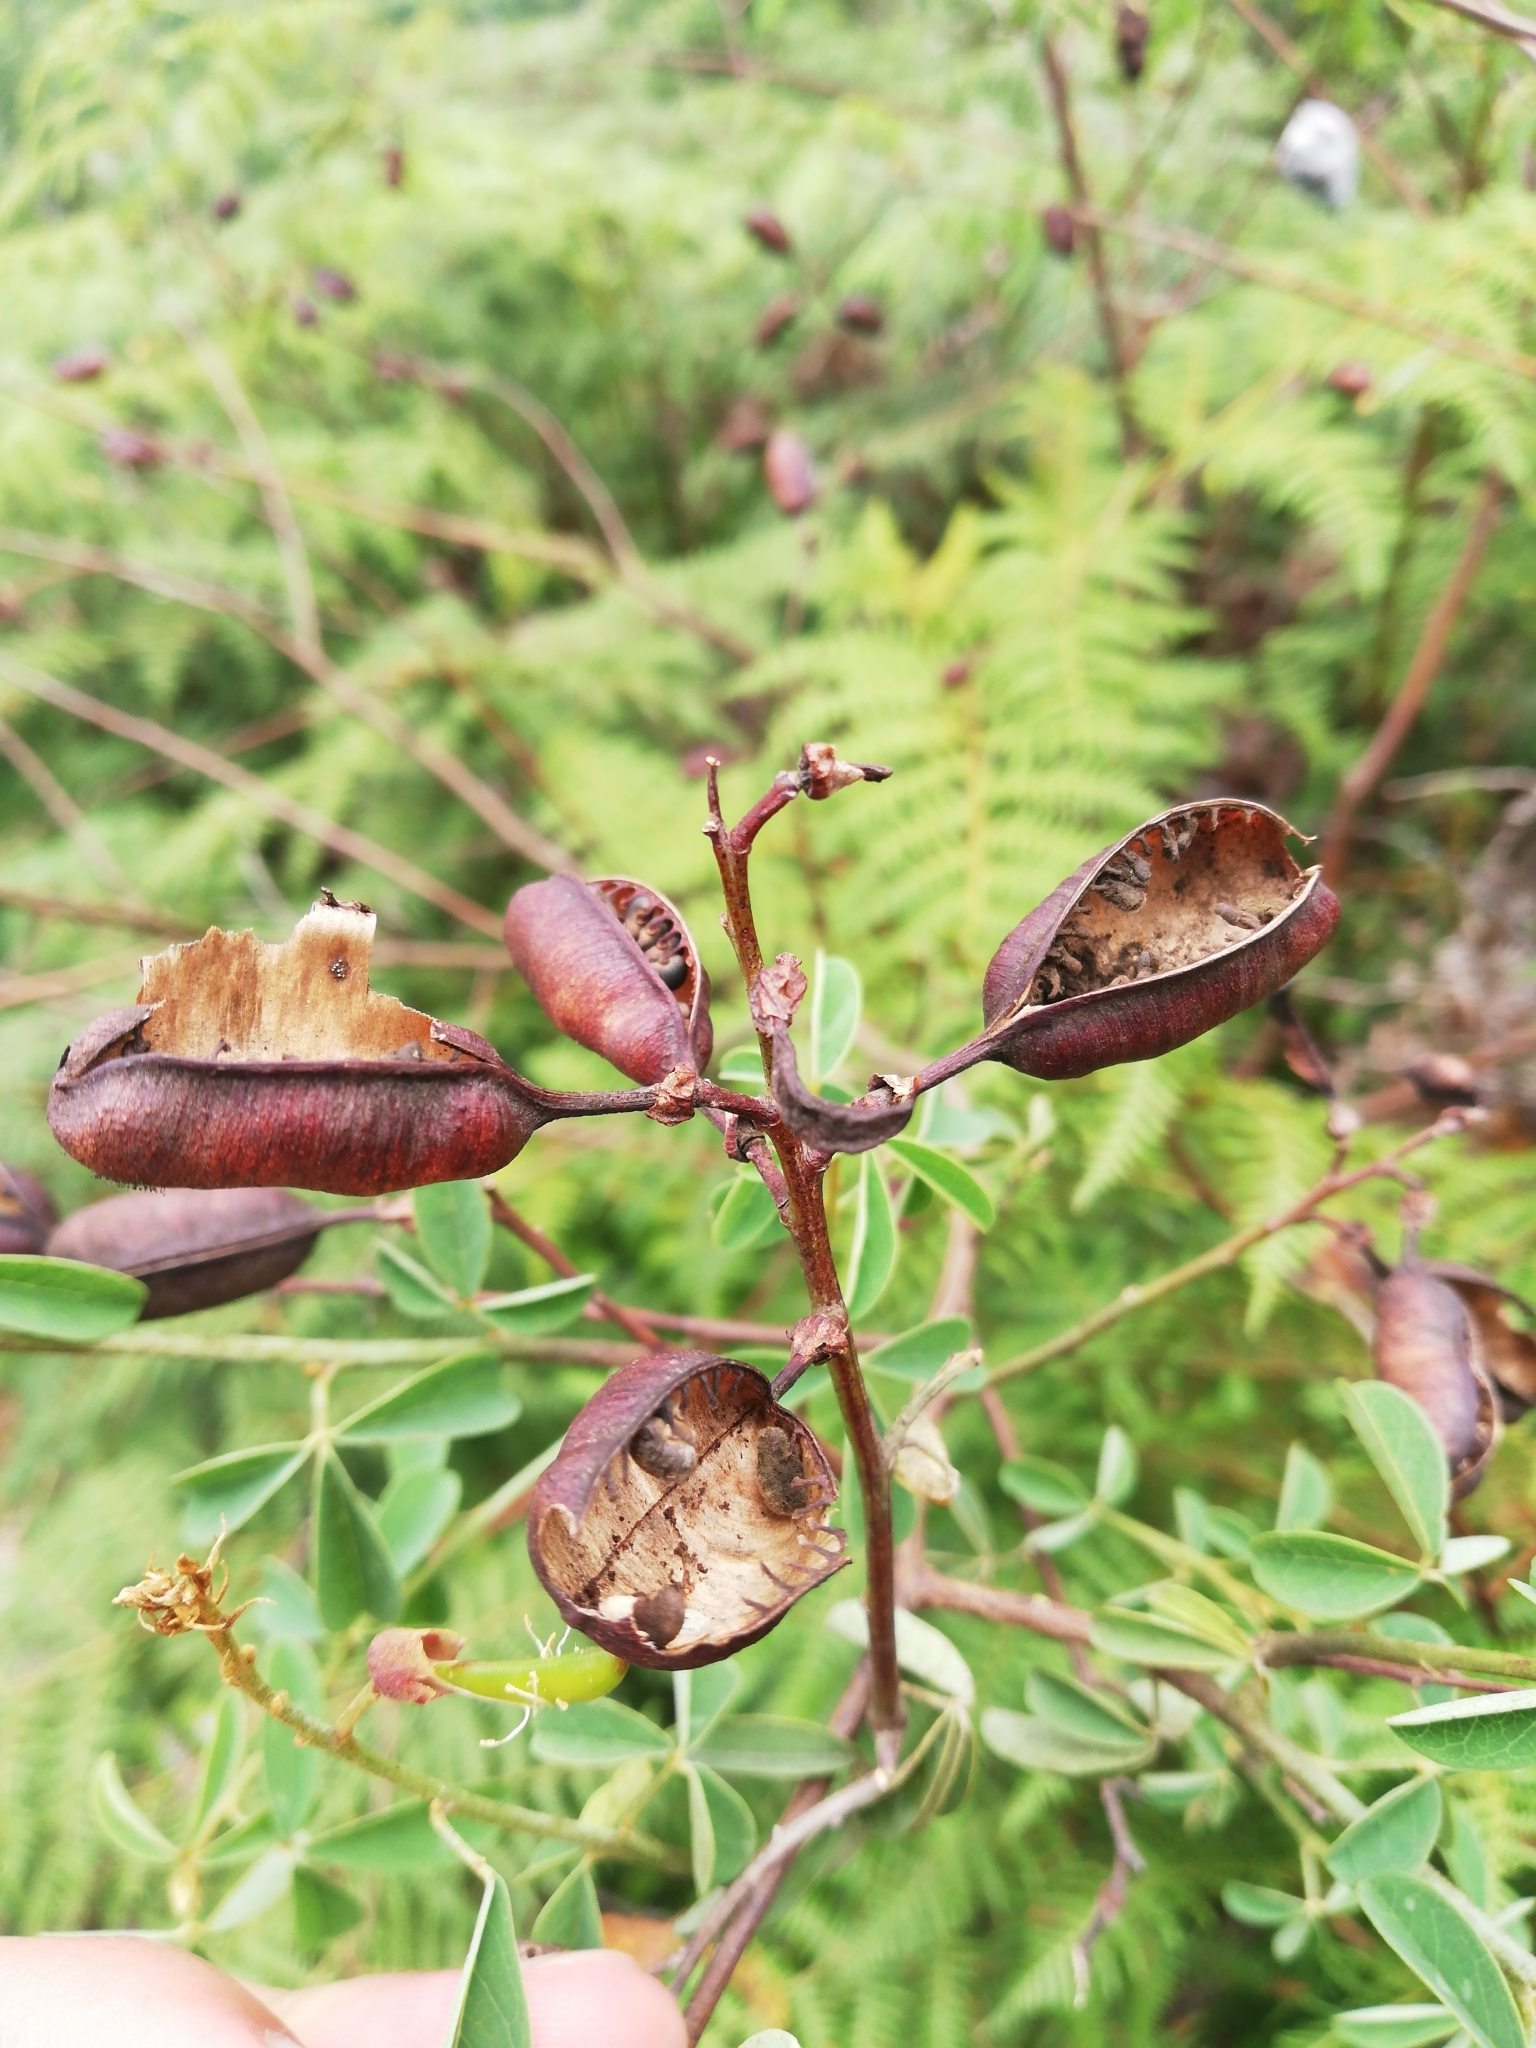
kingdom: Plantae
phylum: Tracheophyta
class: Magnoliopsida
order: Fabales
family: Fabaceae
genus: Hypocalyptus
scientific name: Hypocalyptus sophoroides
